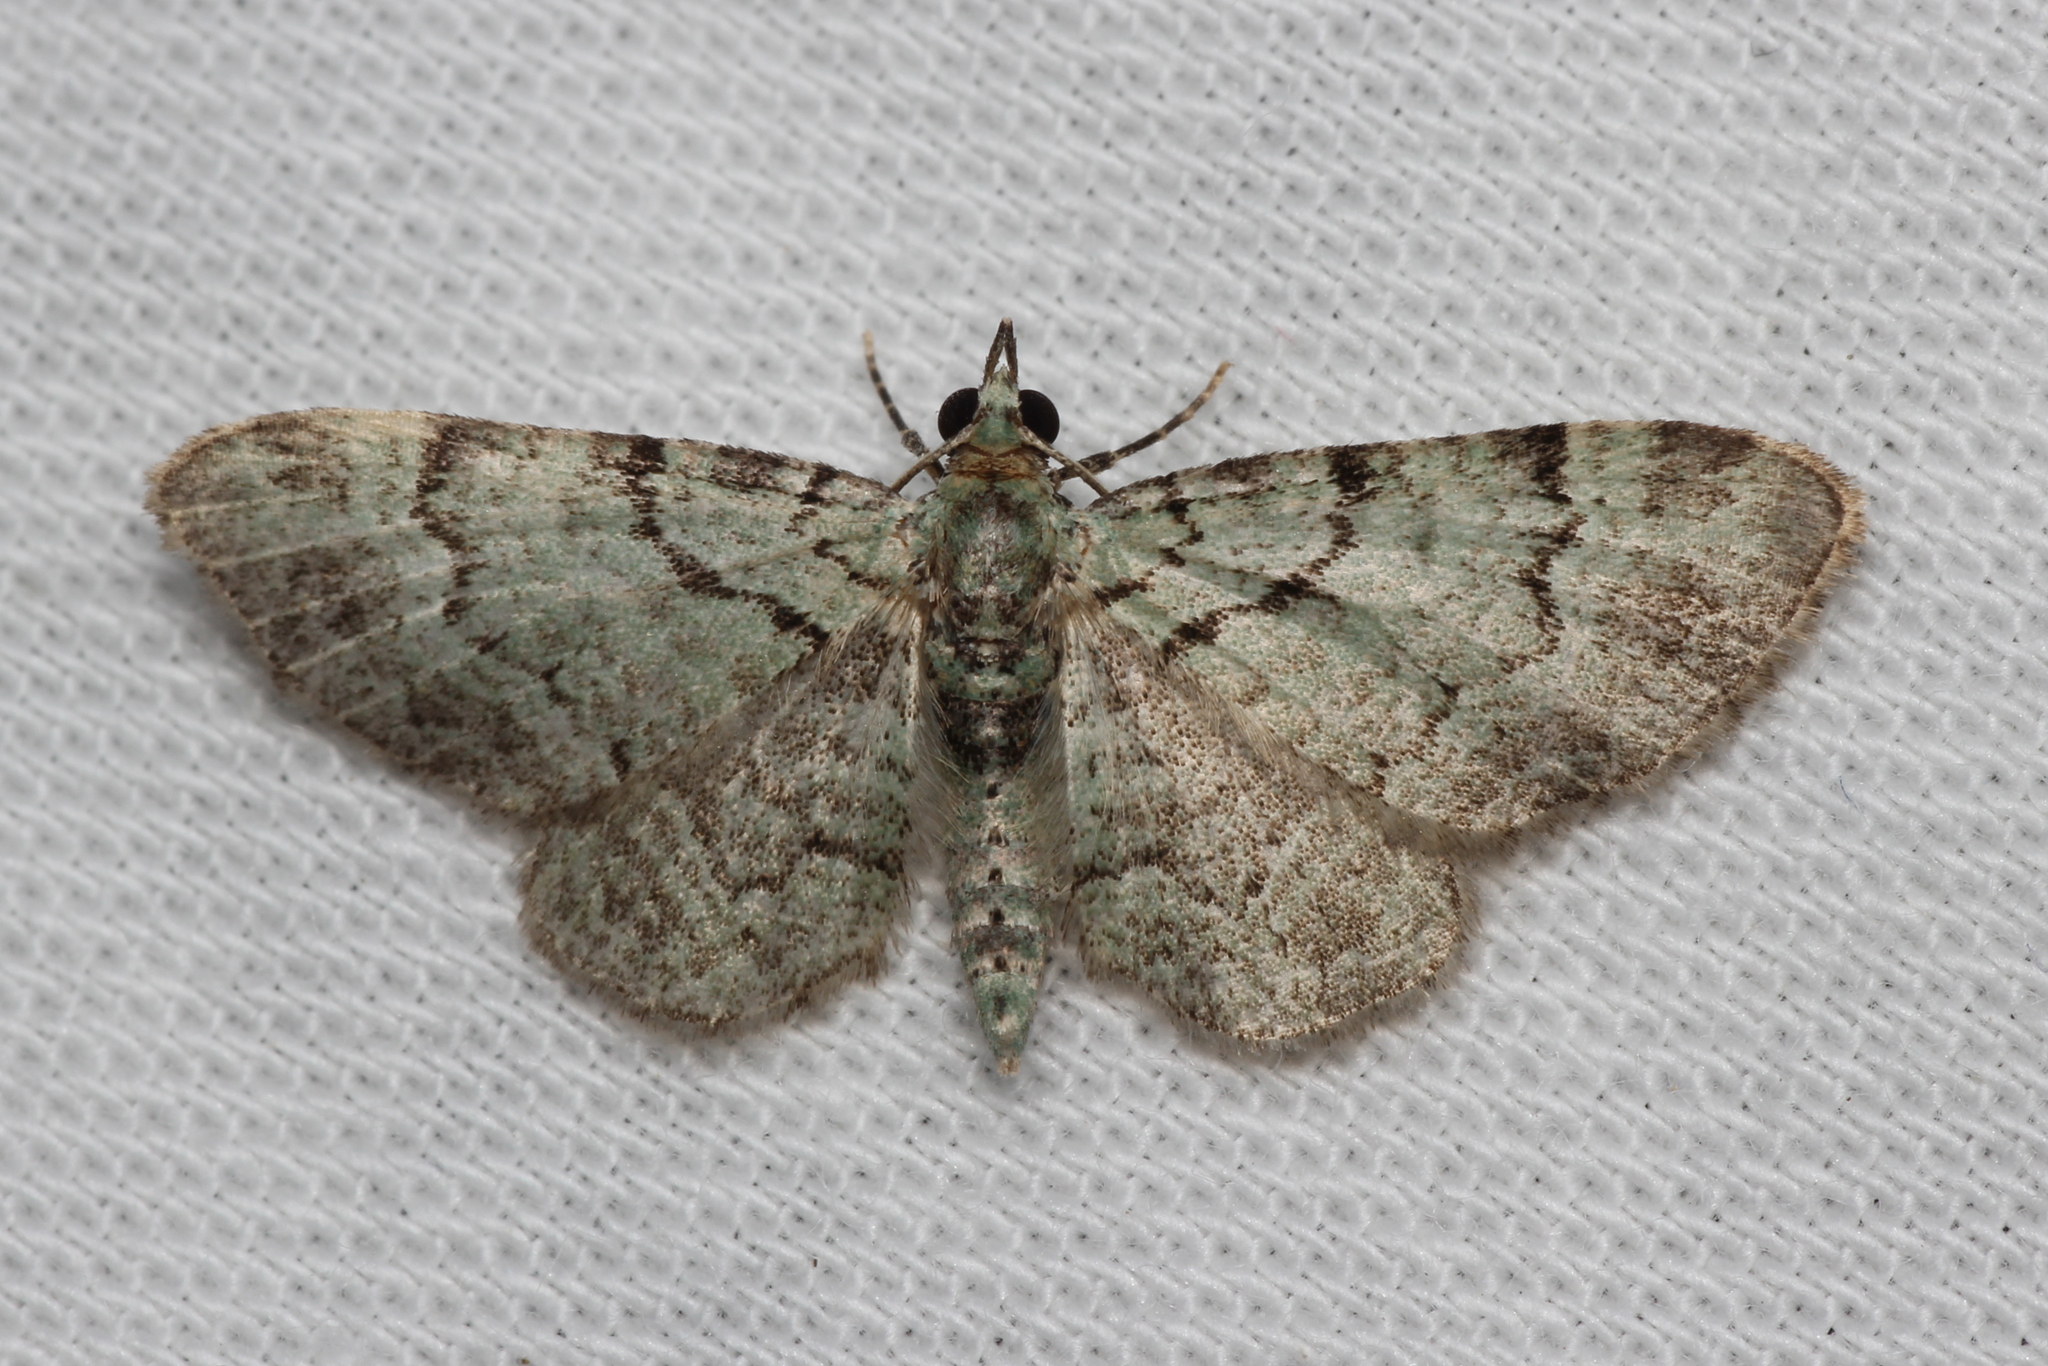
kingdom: Animalia
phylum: Arthropoda
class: Insecta
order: Lepidoptera
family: Geometridae
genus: Pasiphila
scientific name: Pasiphila rectangulata
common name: Green pug
